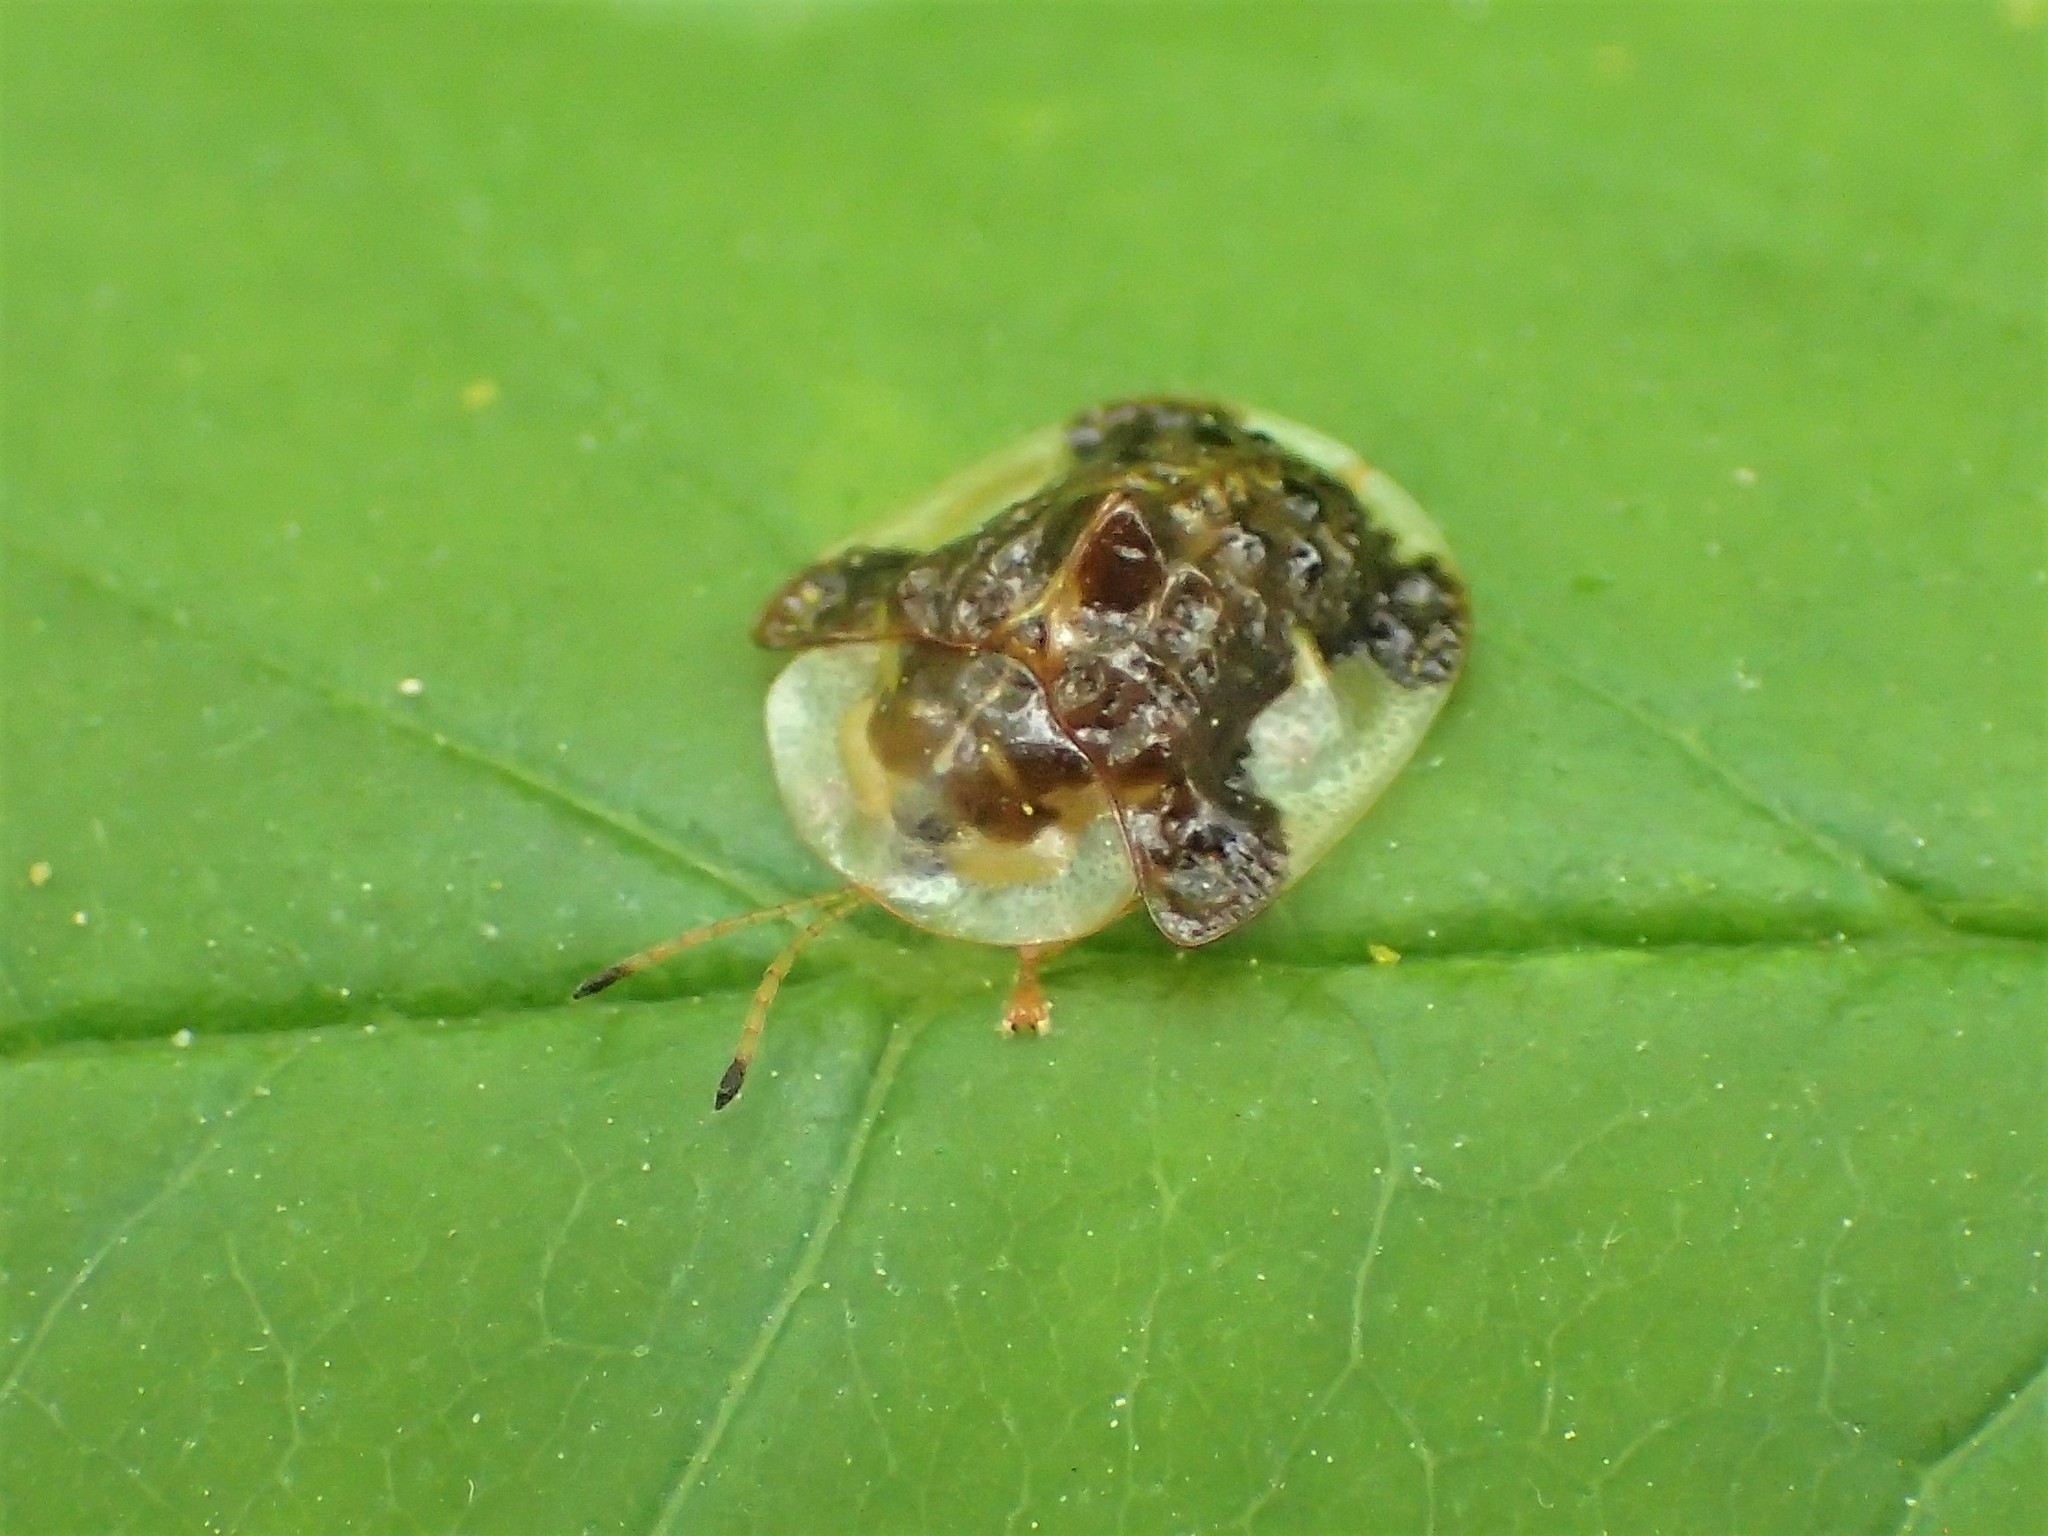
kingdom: Animalia
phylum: Arthropoda
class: Insecta
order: Coleoptera
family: Chrysomelidae
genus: Helocassis
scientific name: Helocassis clavata
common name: Clavate tortoise beetle
